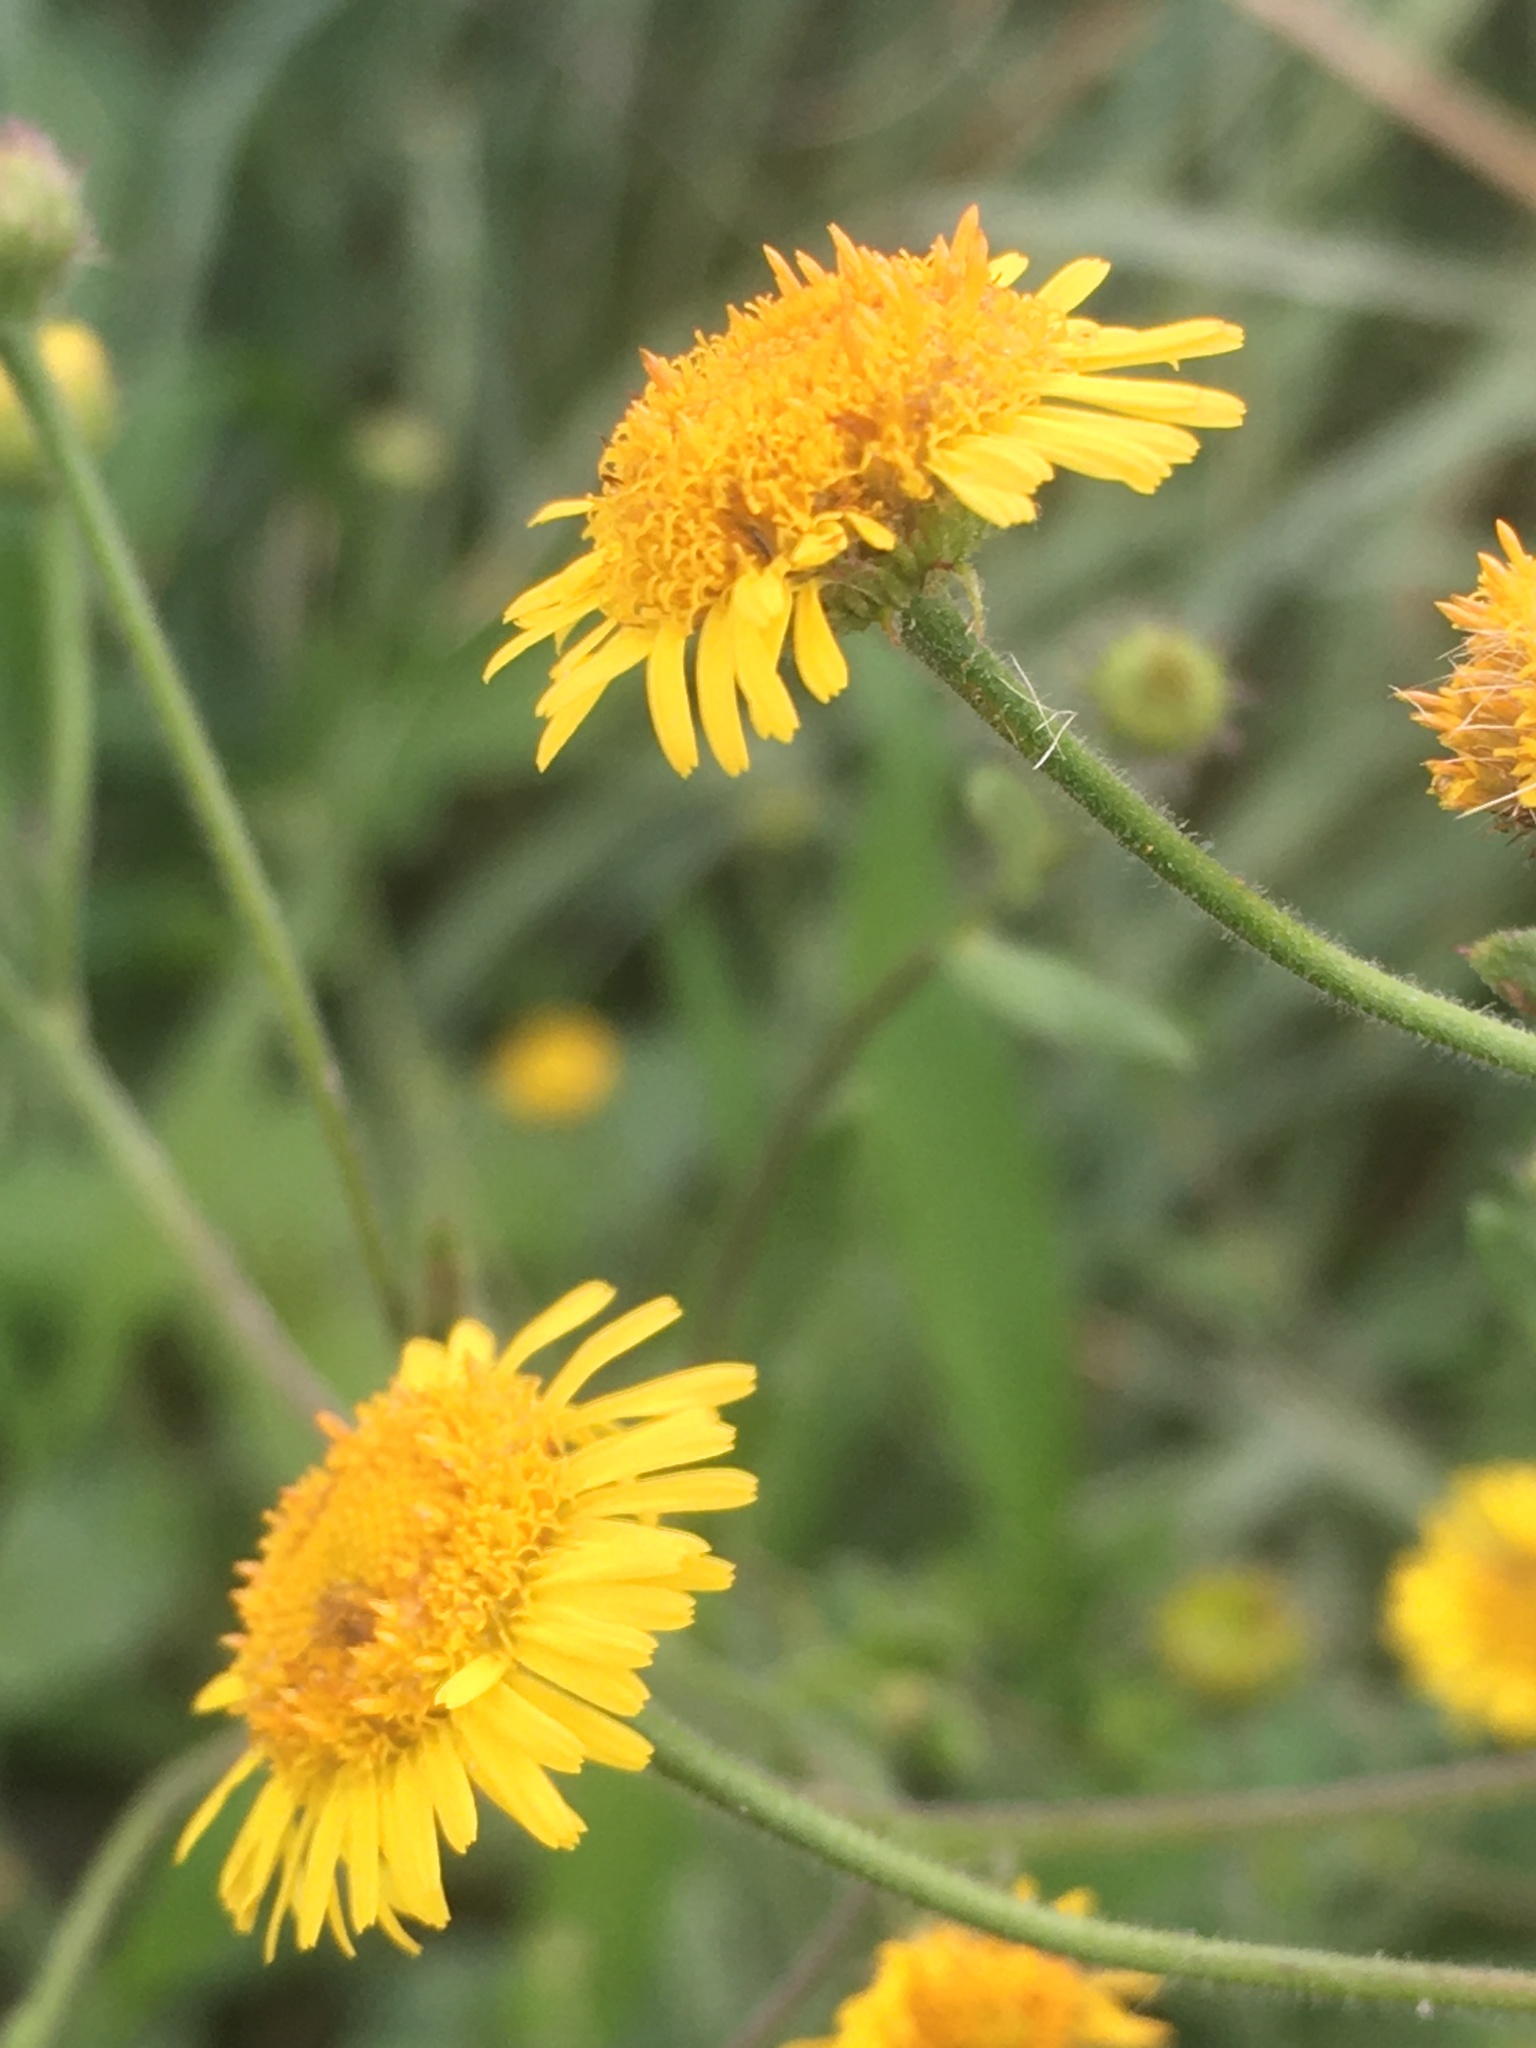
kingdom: Plantae
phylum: Tracheophyta
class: Magnoliopsida
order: Asterales
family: Asteraceae
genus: Pulicaria
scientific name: Pulicaria dysenterica
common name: Common fleabane
